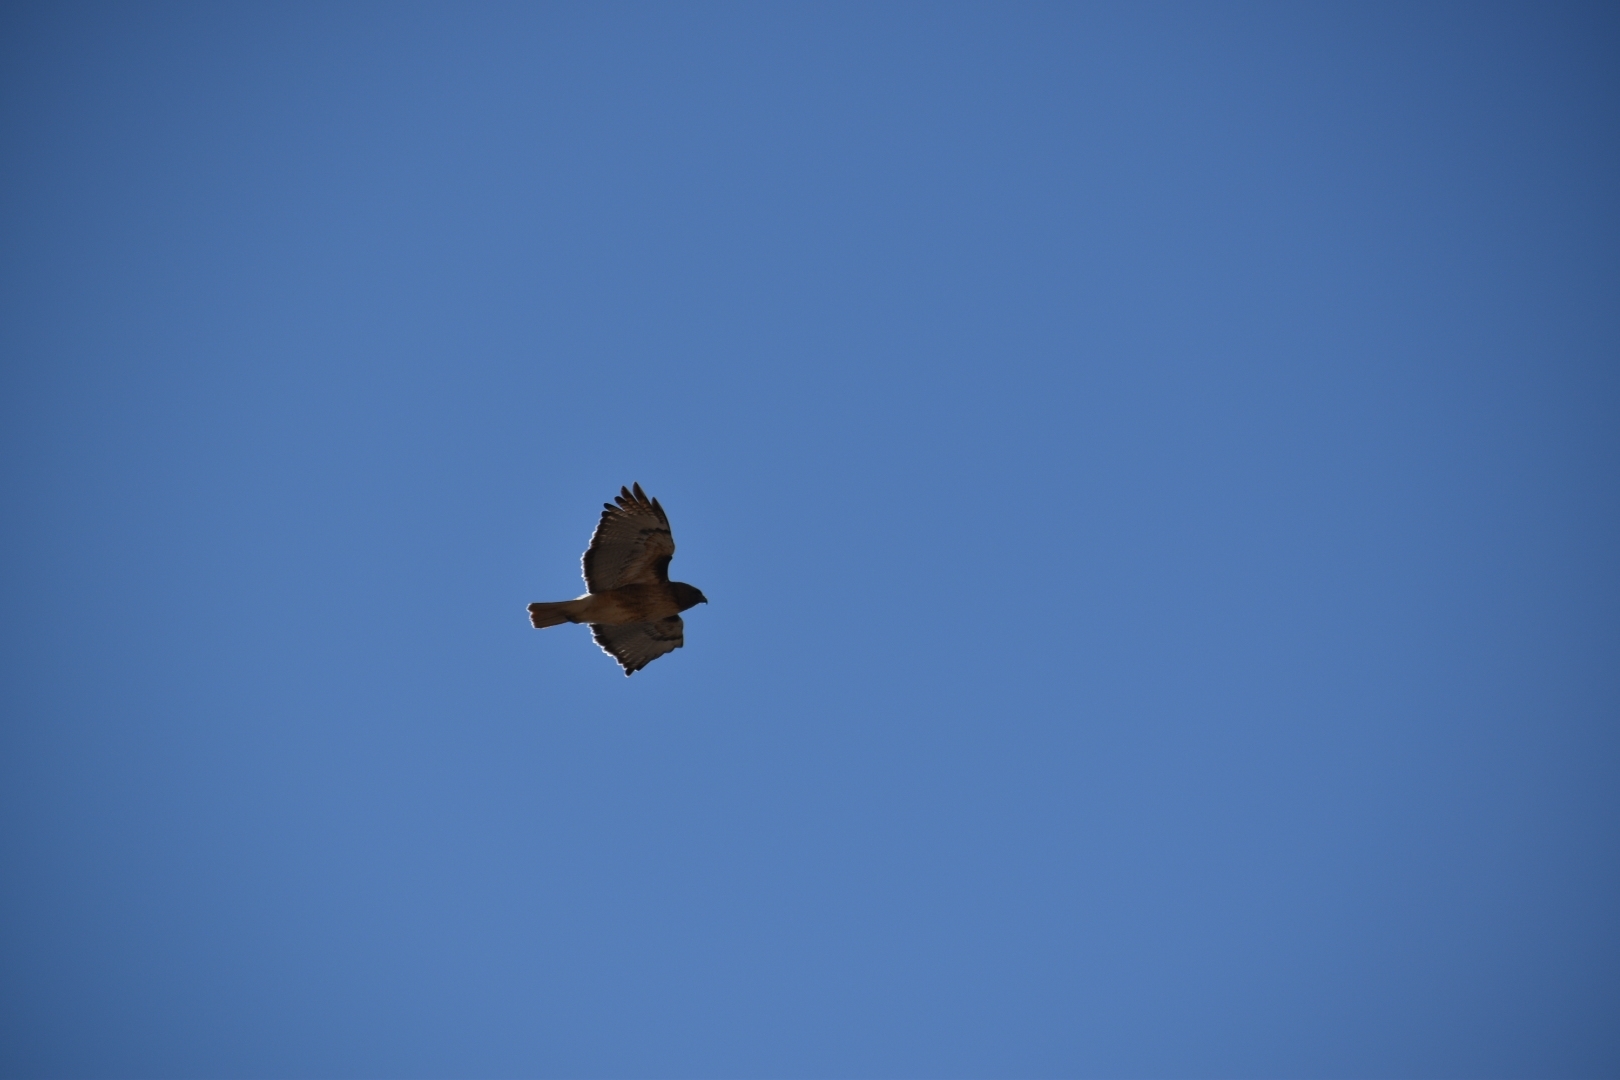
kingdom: Animalia
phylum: Chordata
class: Aves
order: Accipitriformes
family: Accipitridae
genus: Buteo
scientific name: Buteo jamaicensis
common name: Red-tailed hawk
